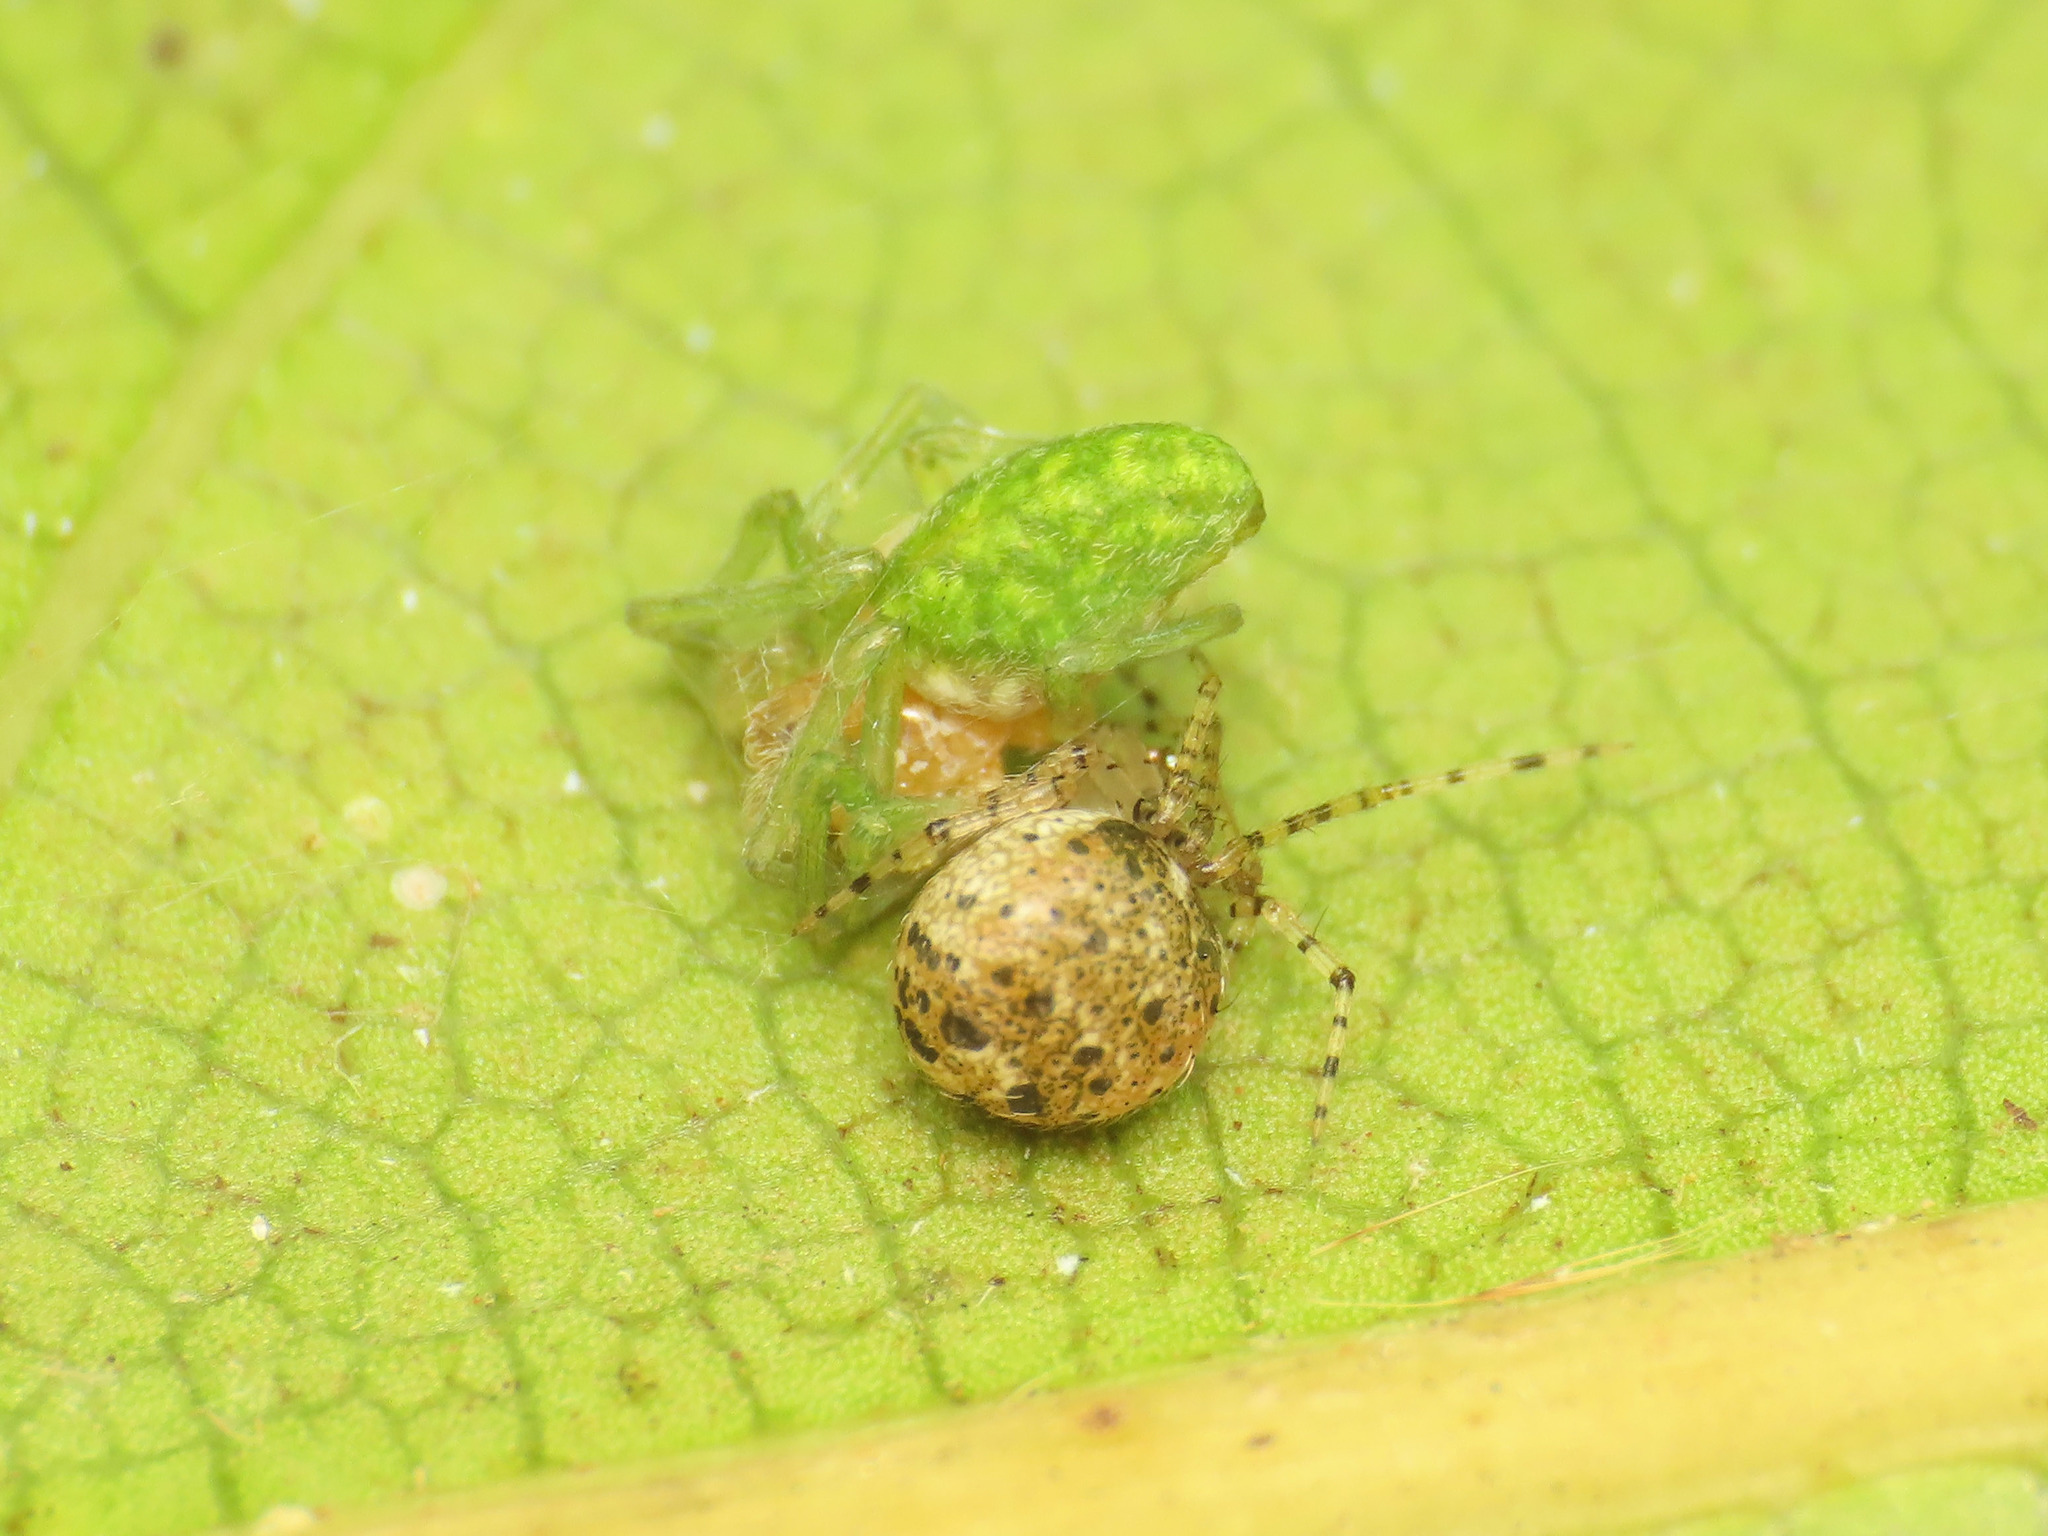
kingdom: Animalia
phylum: Arthropoda
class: Arachnida
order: Araneae
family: Dictynidae
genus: Nigma
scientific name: Nigma walckenaeri
